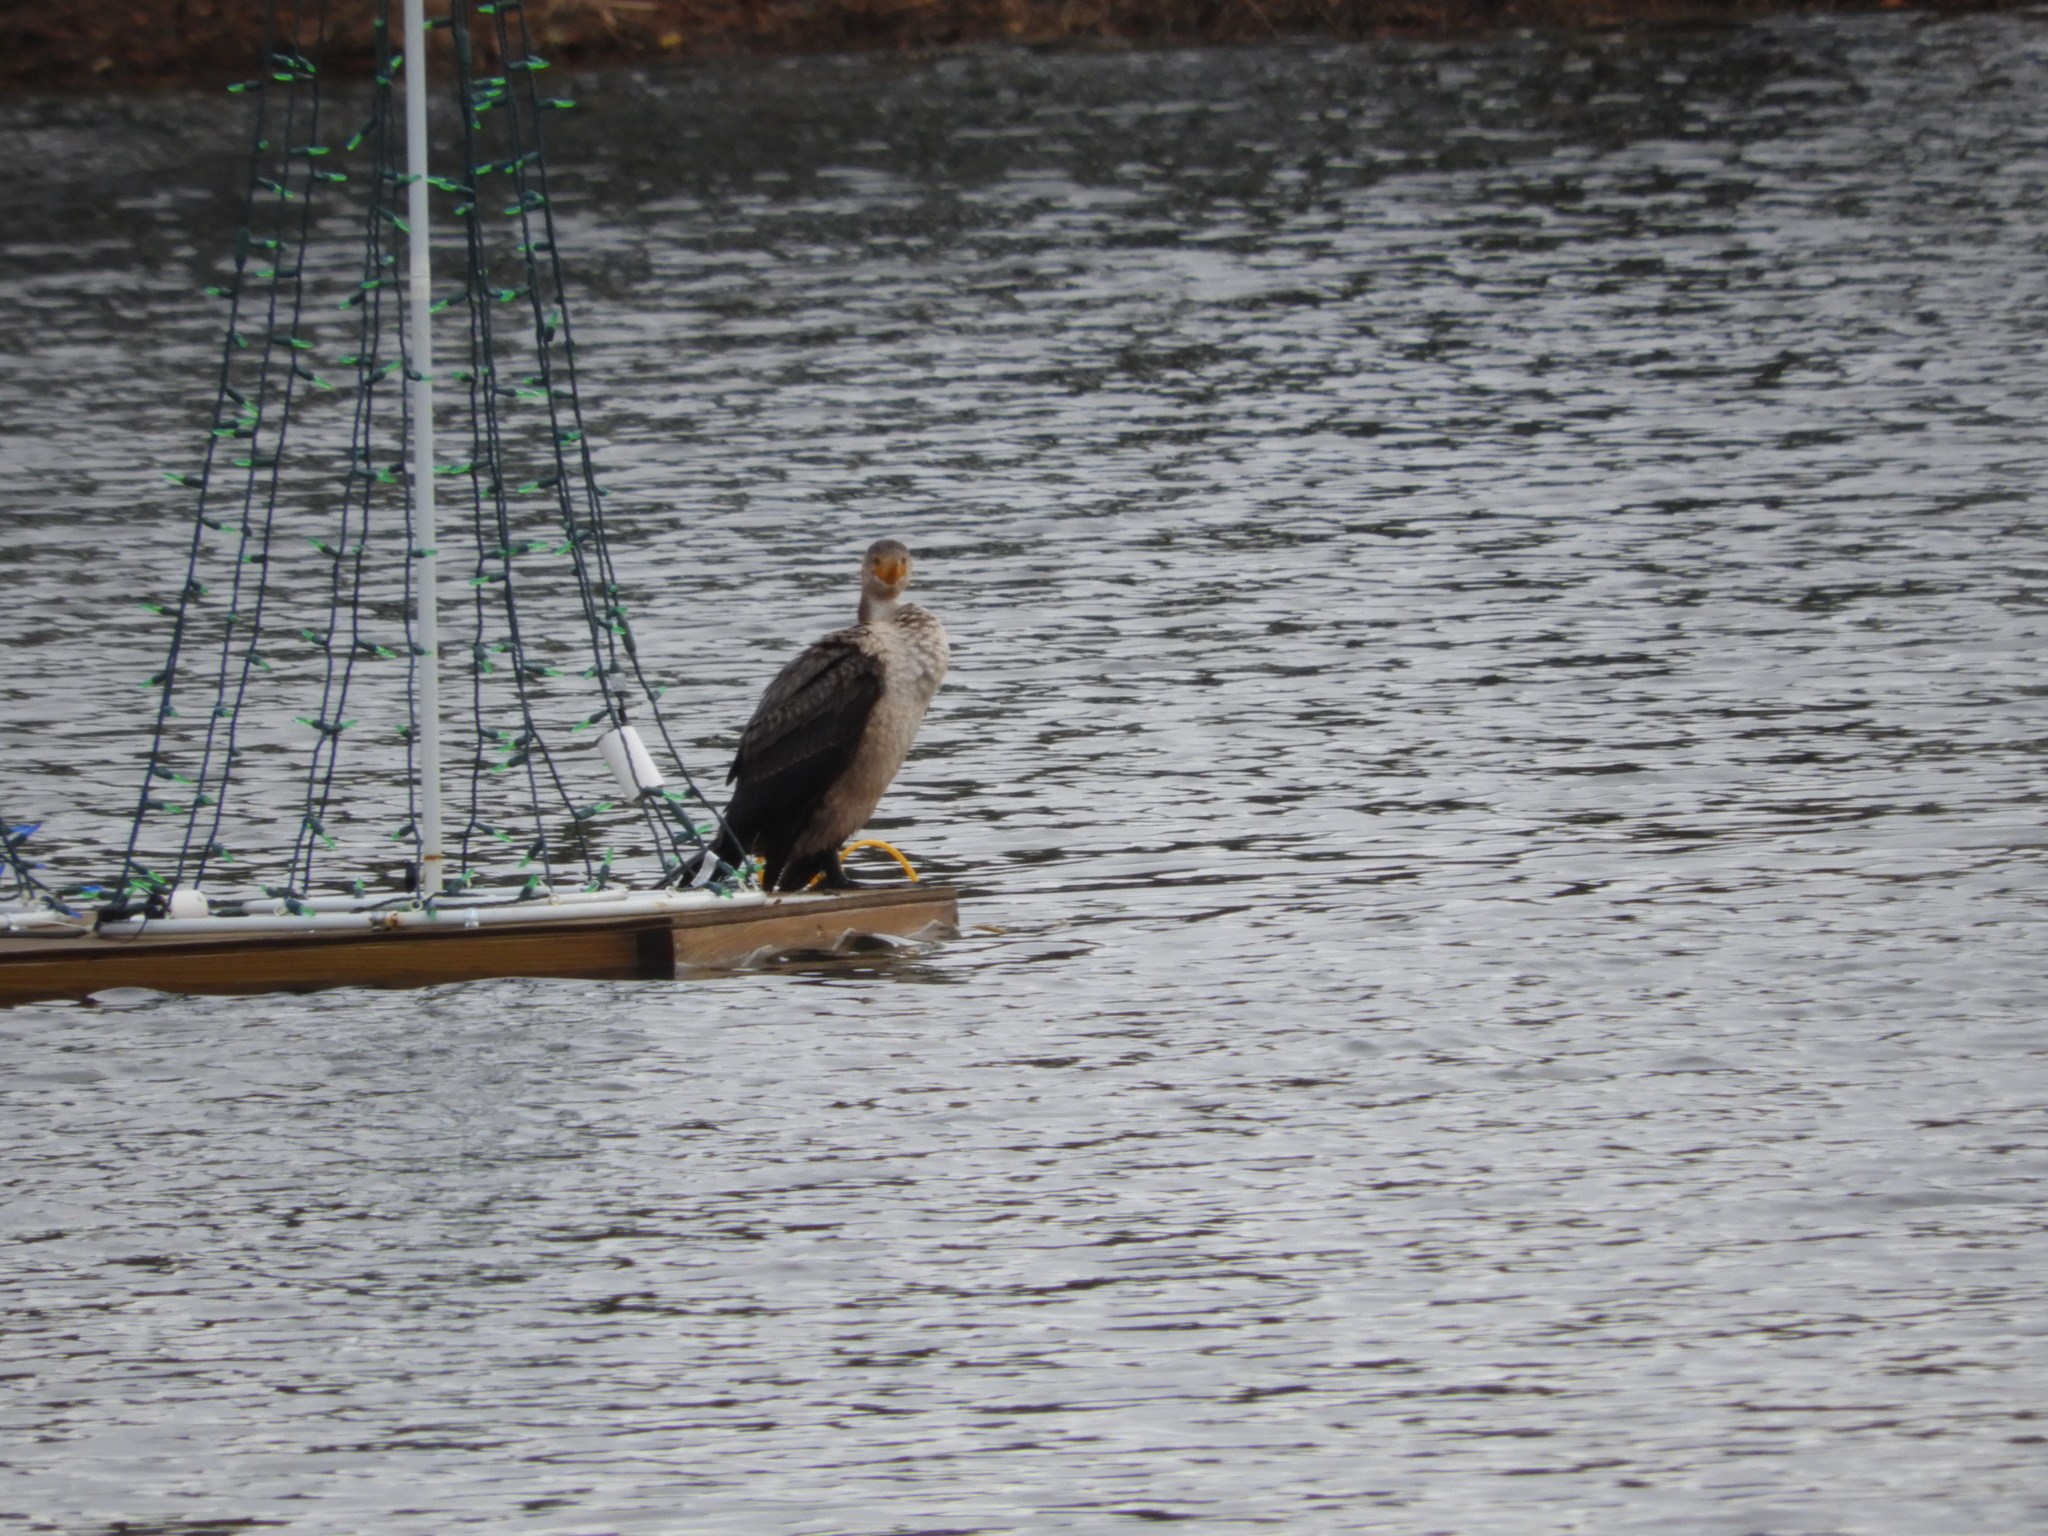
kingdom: Animalia
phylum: Chordata
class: Aves
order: Suliformes
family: Phalacrocoracidae
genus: Phalacrocorax
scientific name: Phalacrocorax auritus
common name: Double-crested cormorant
